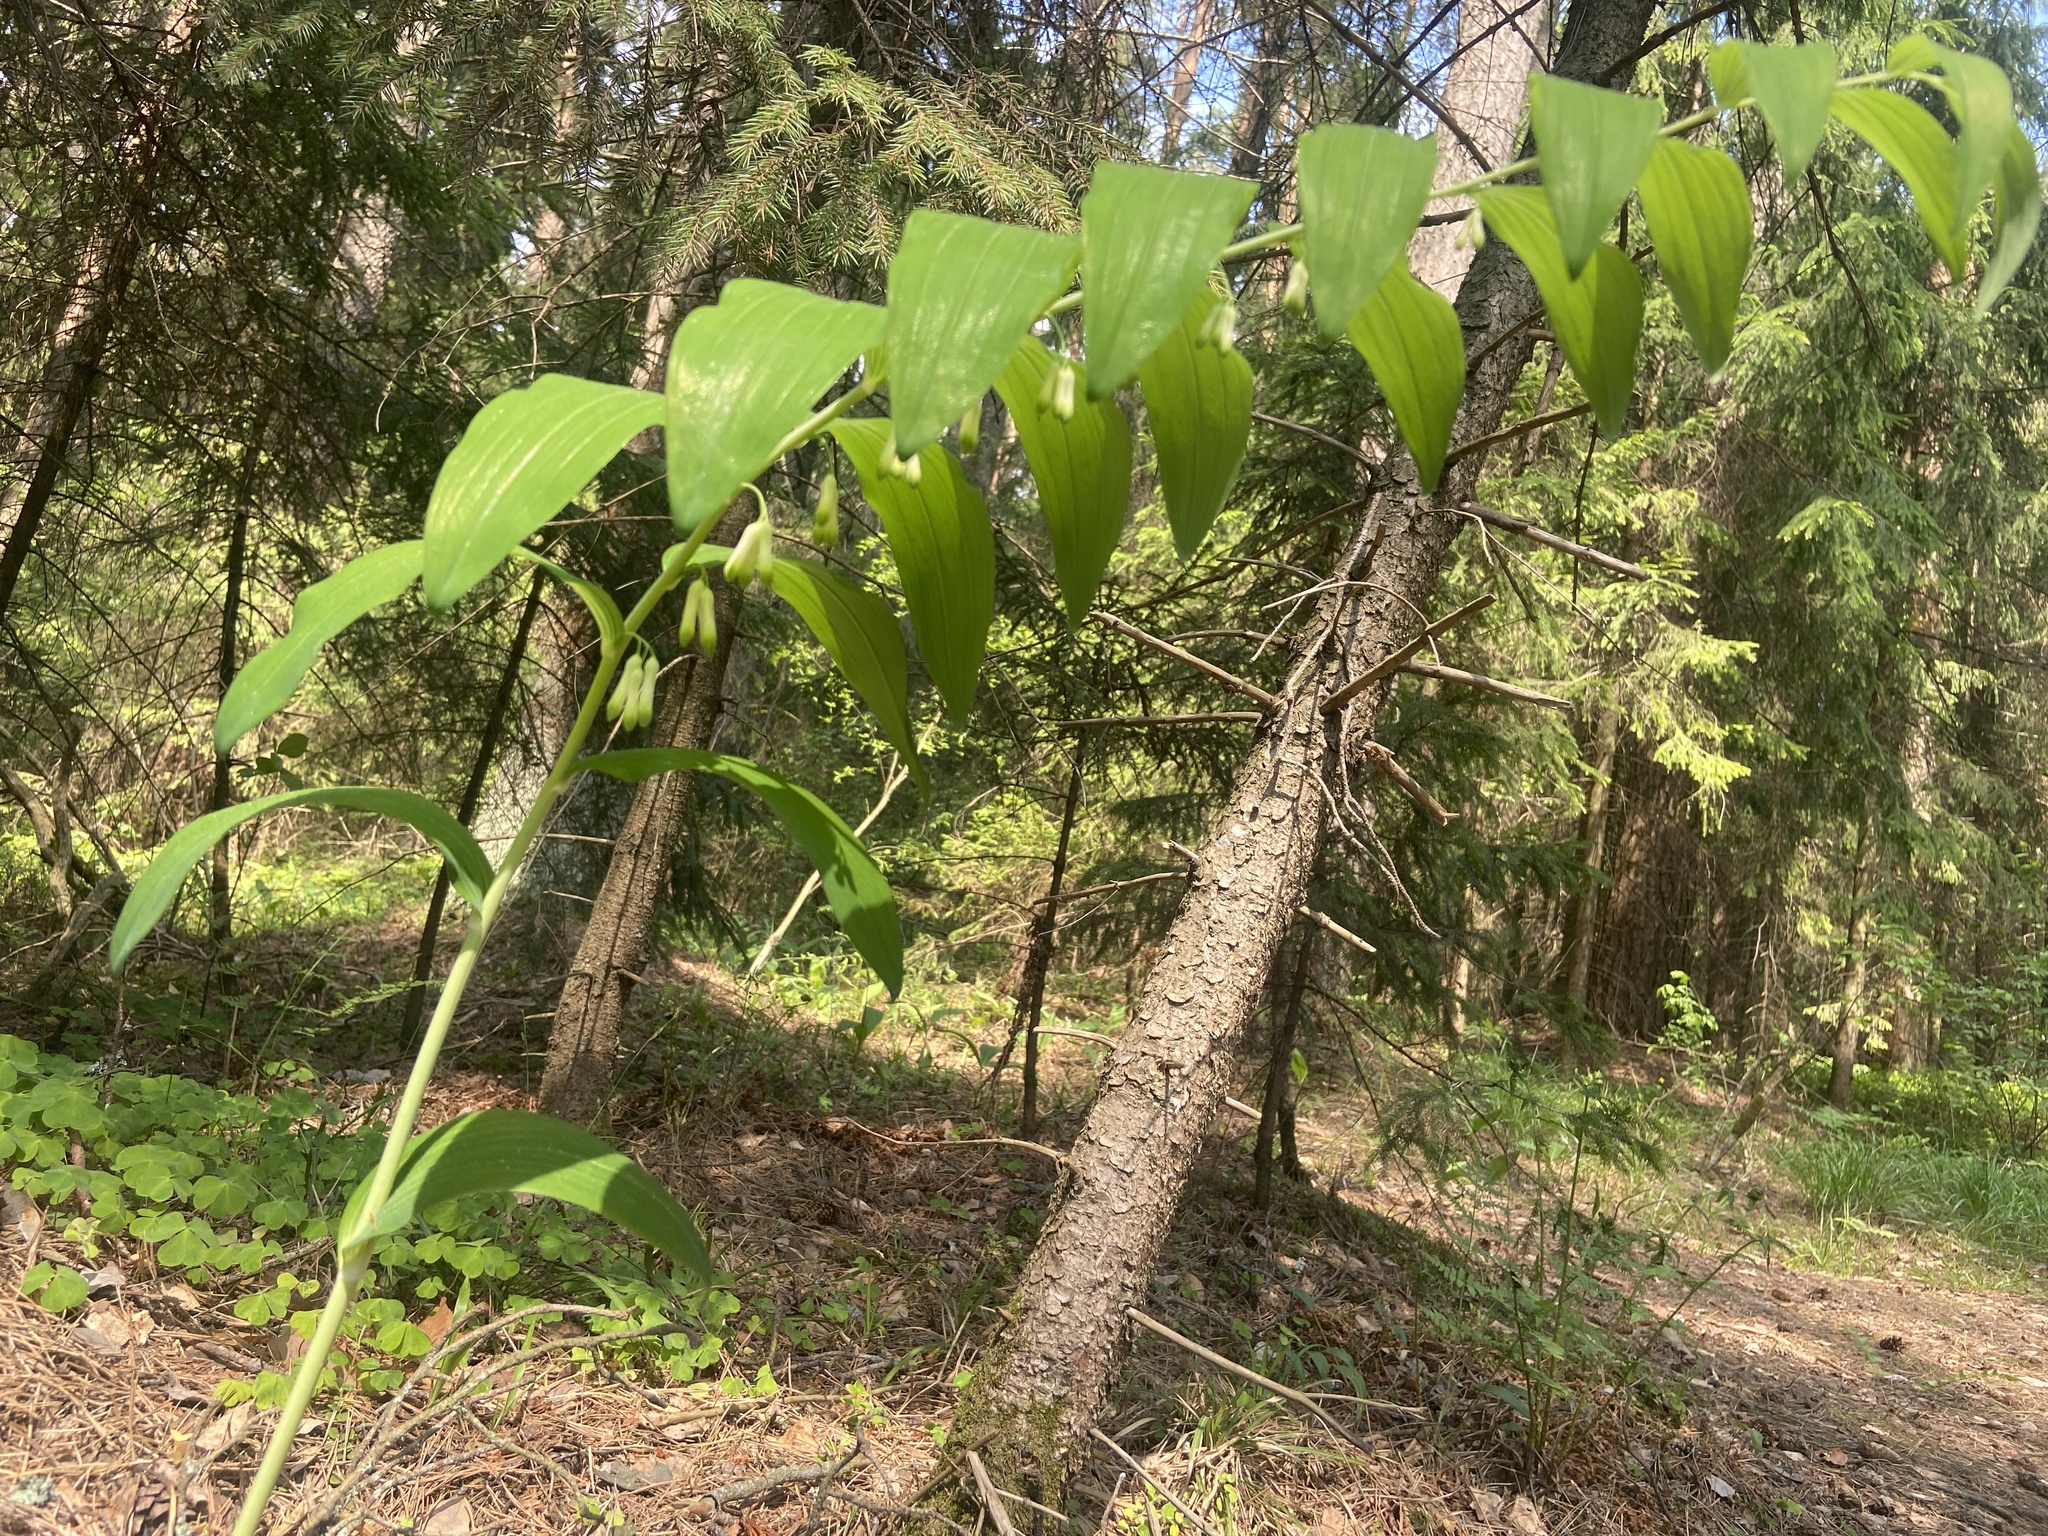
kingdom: Plantae
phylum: Tracheophyta
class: Liliopsida
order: Asparagales
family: Asparagaceae
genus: Polygonatum
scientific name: Polygonatum multiflorum
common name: Solomon's-seal
